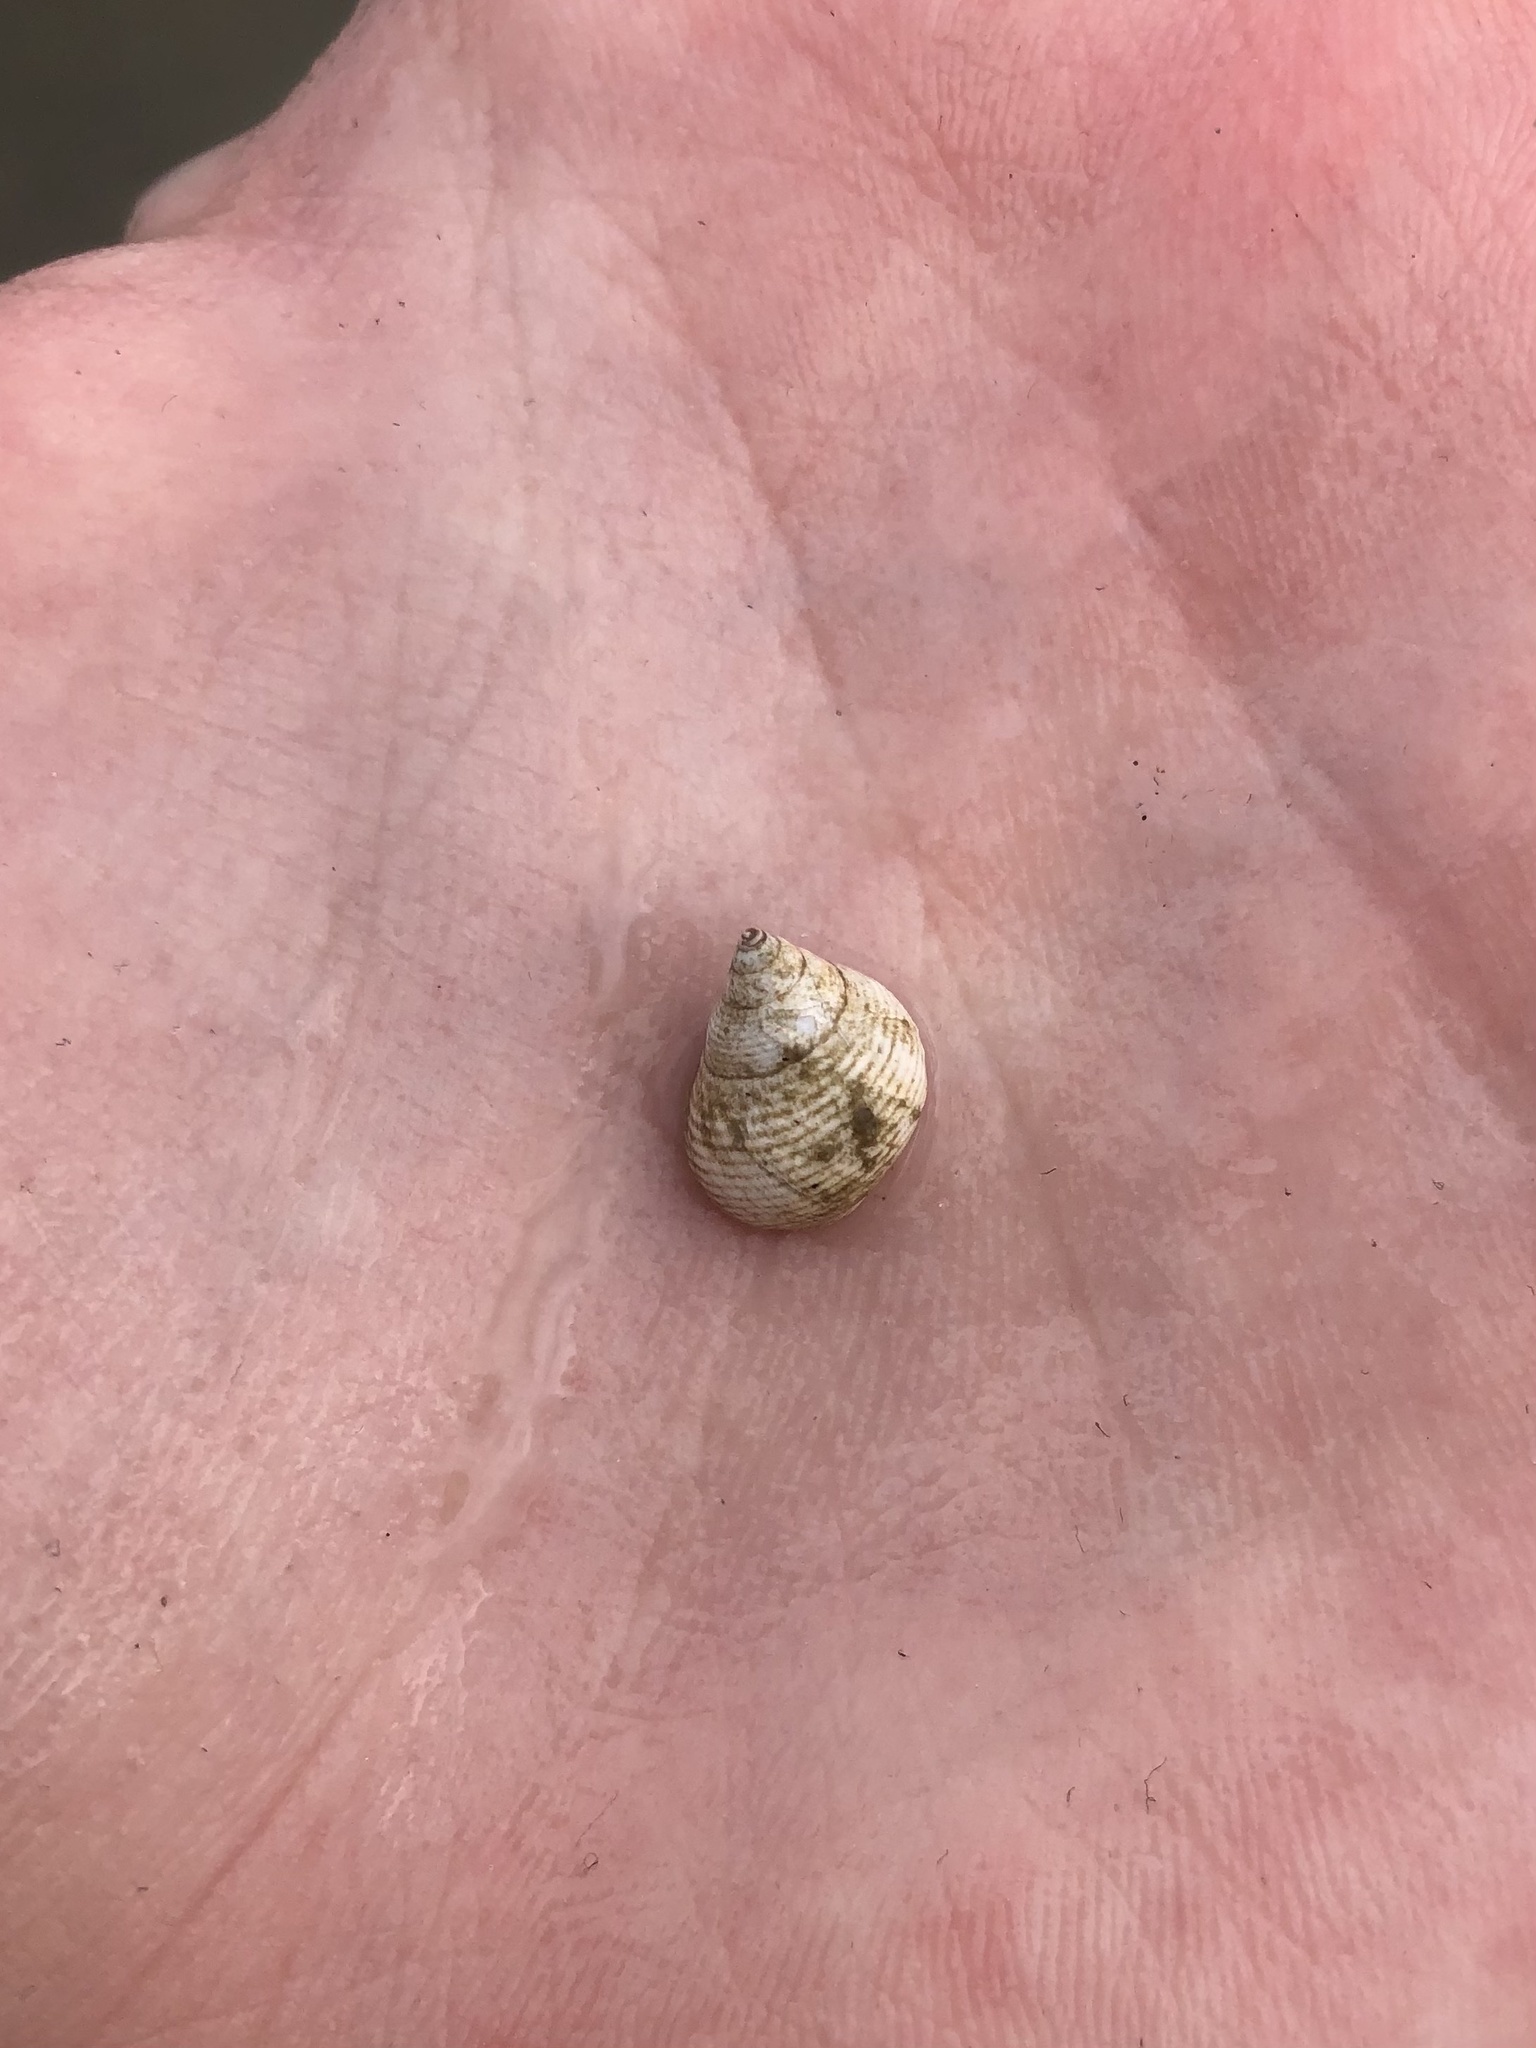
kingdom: Animalia
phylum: Mollusca
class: Gastropoda
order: Littorinimorpha
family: Littorinidae
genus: Littoraria
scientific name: Littoraria irrorata
